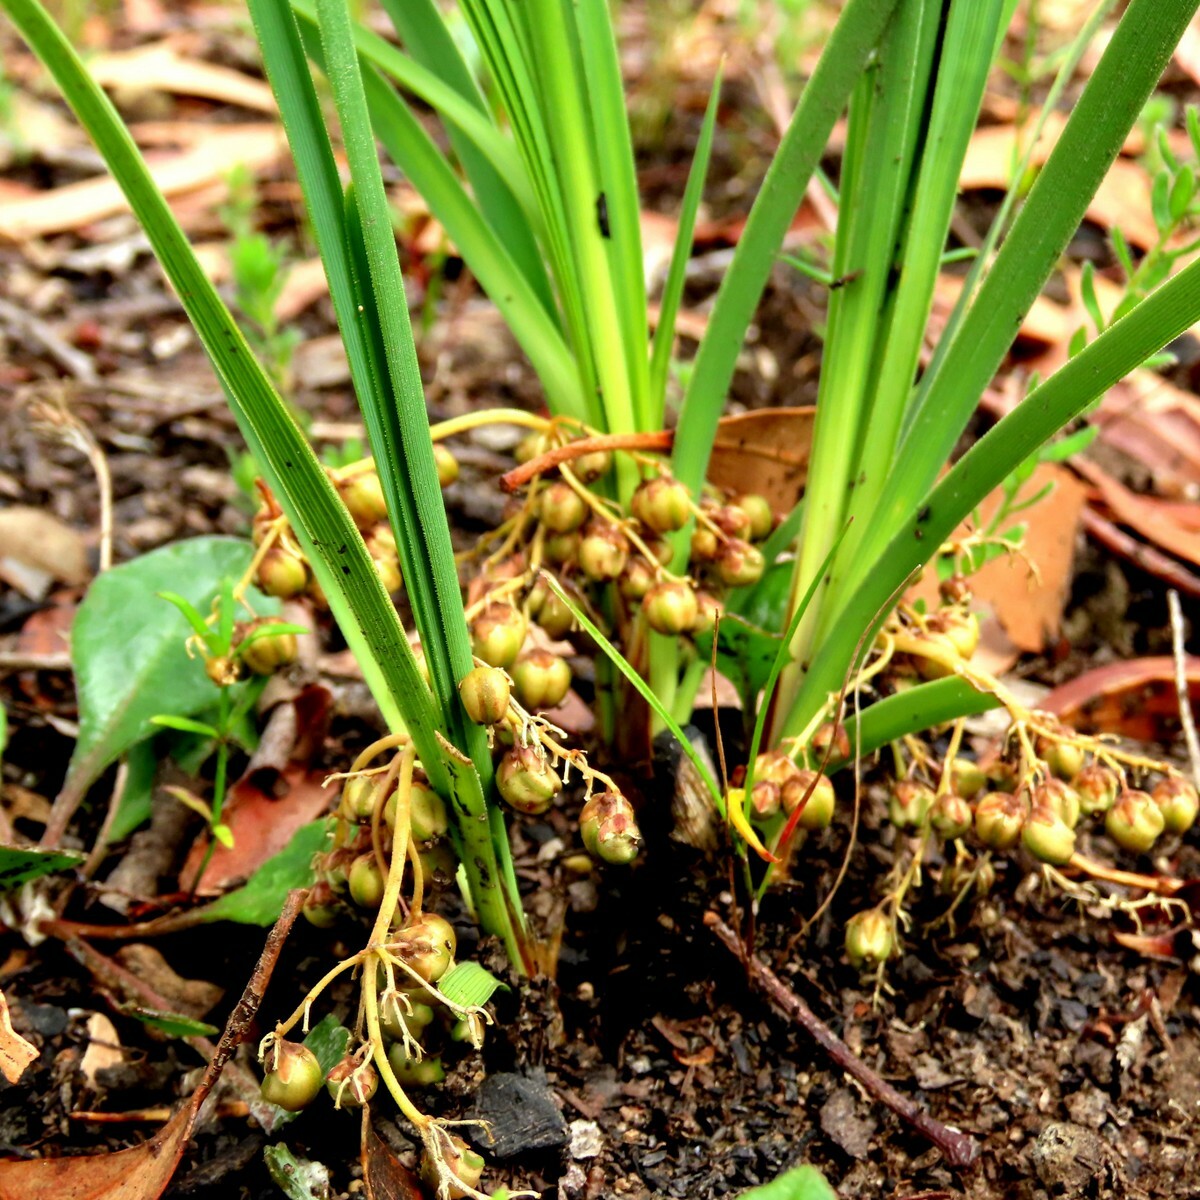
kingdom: Plantae
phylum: Tracheophyta
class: Liliopsida
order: Asparagales
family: Asparagaceae
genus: Lomandra
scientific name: Lomandra filiformis
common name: Wattle mat-rush
